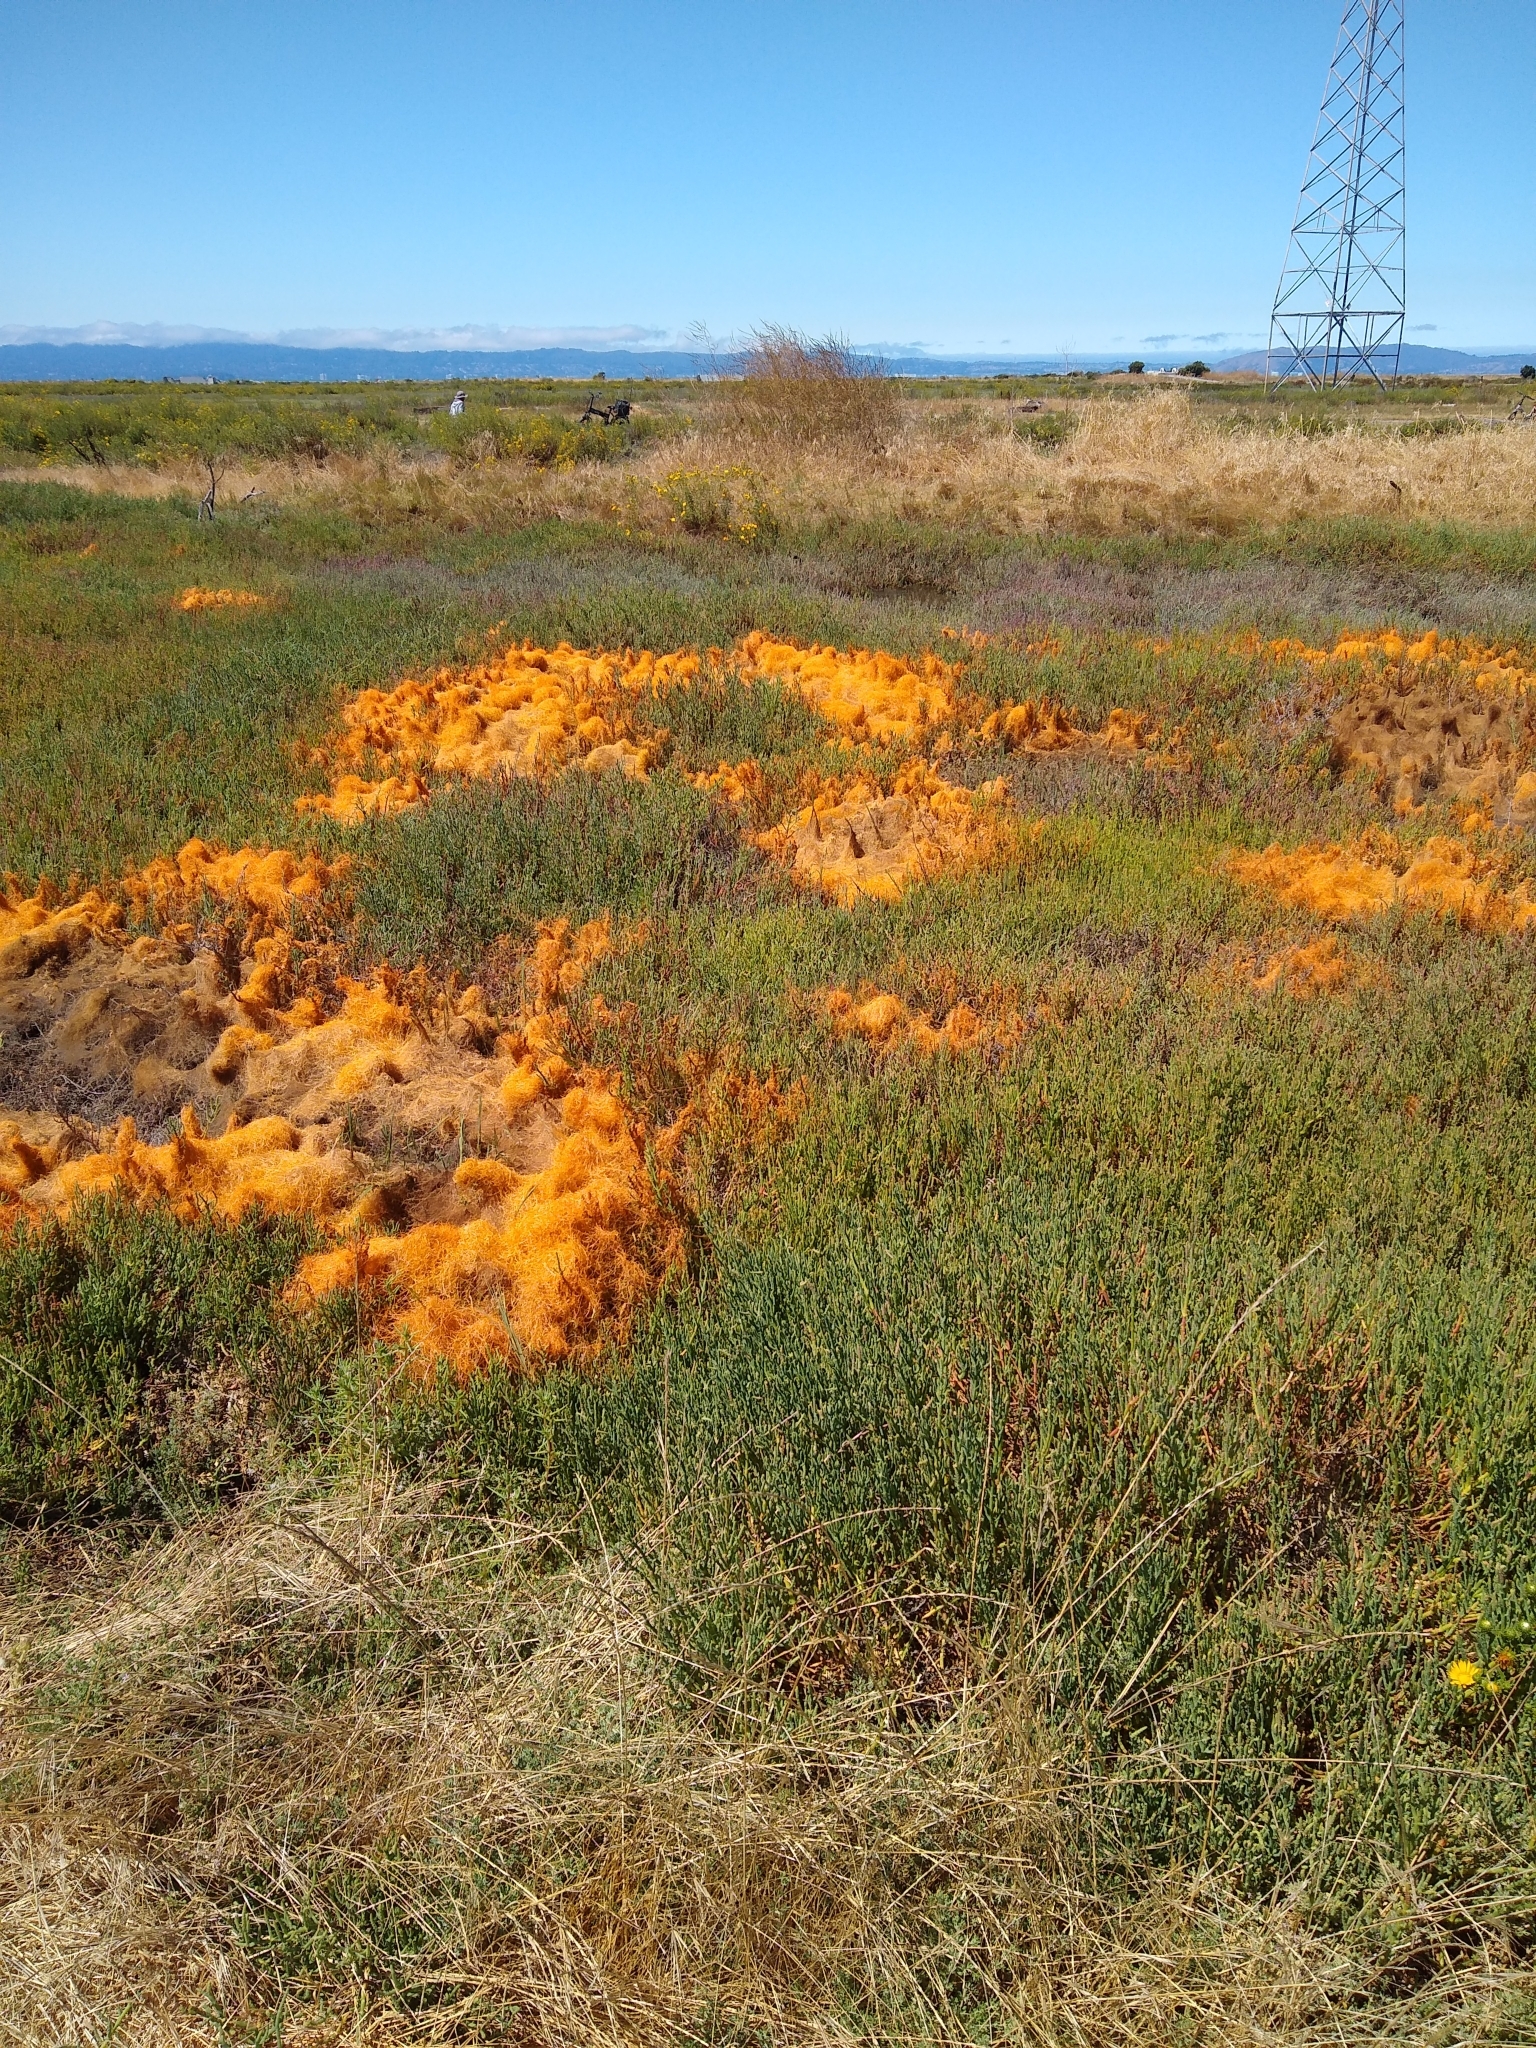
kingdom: Plantae
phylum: Tracheophyta
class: Magnoliopsida
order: Solanales
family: Convolvulaceae
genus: Cuscuta
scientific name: Cuscuta pacifica
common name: Large saltmarsh dodder
